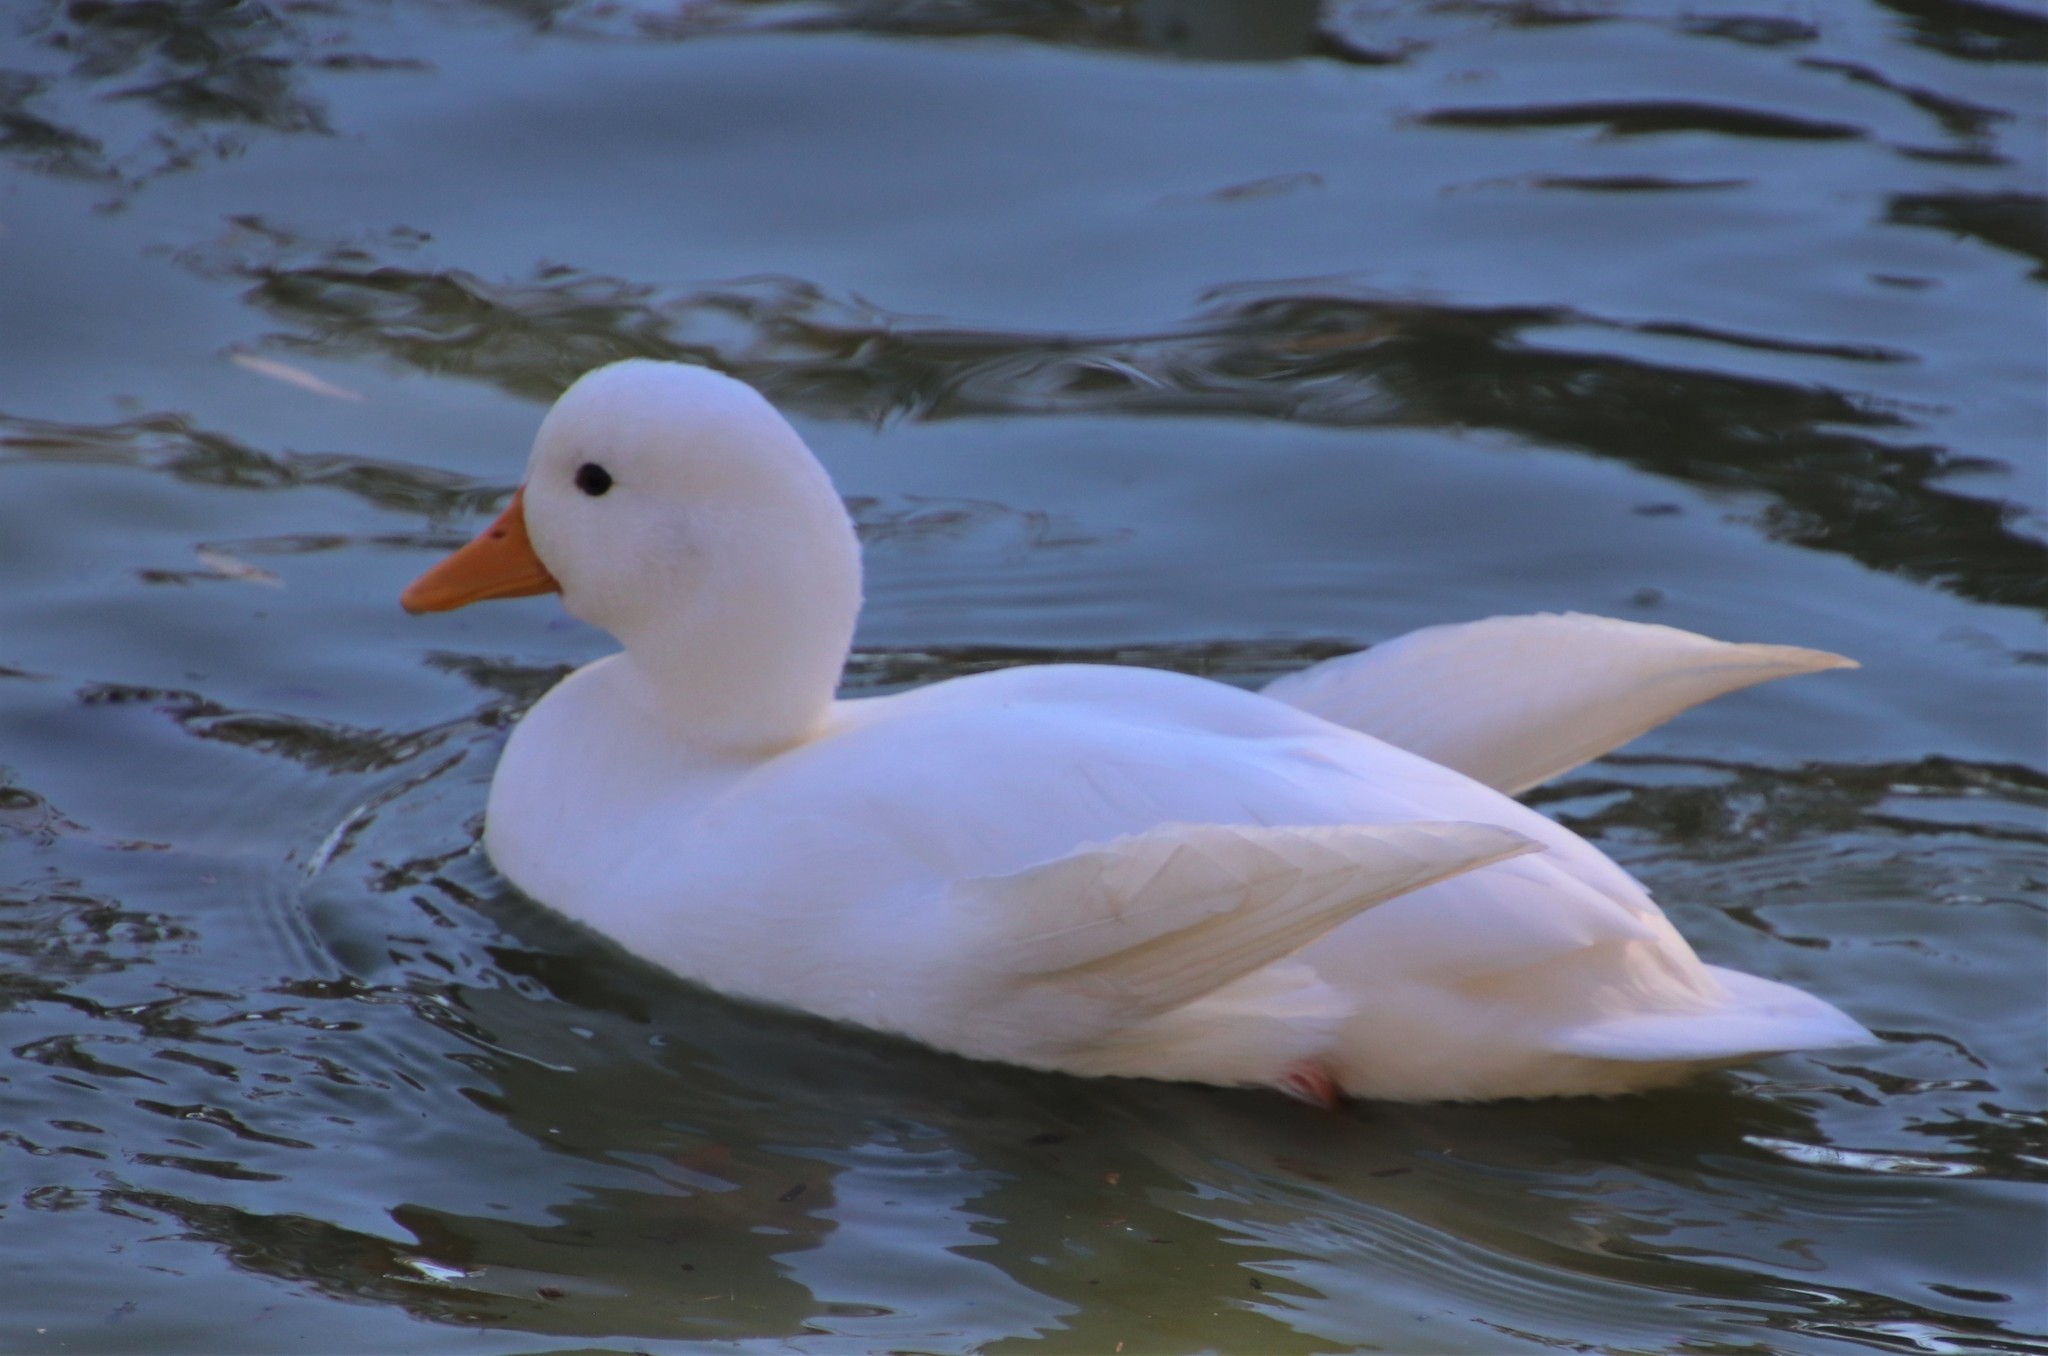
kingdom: Animalia
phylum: Chordata
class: Aves
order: Anseriformes
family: Anatidae
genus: Anas
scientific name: Anas platyrhynchos
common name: Mallard
